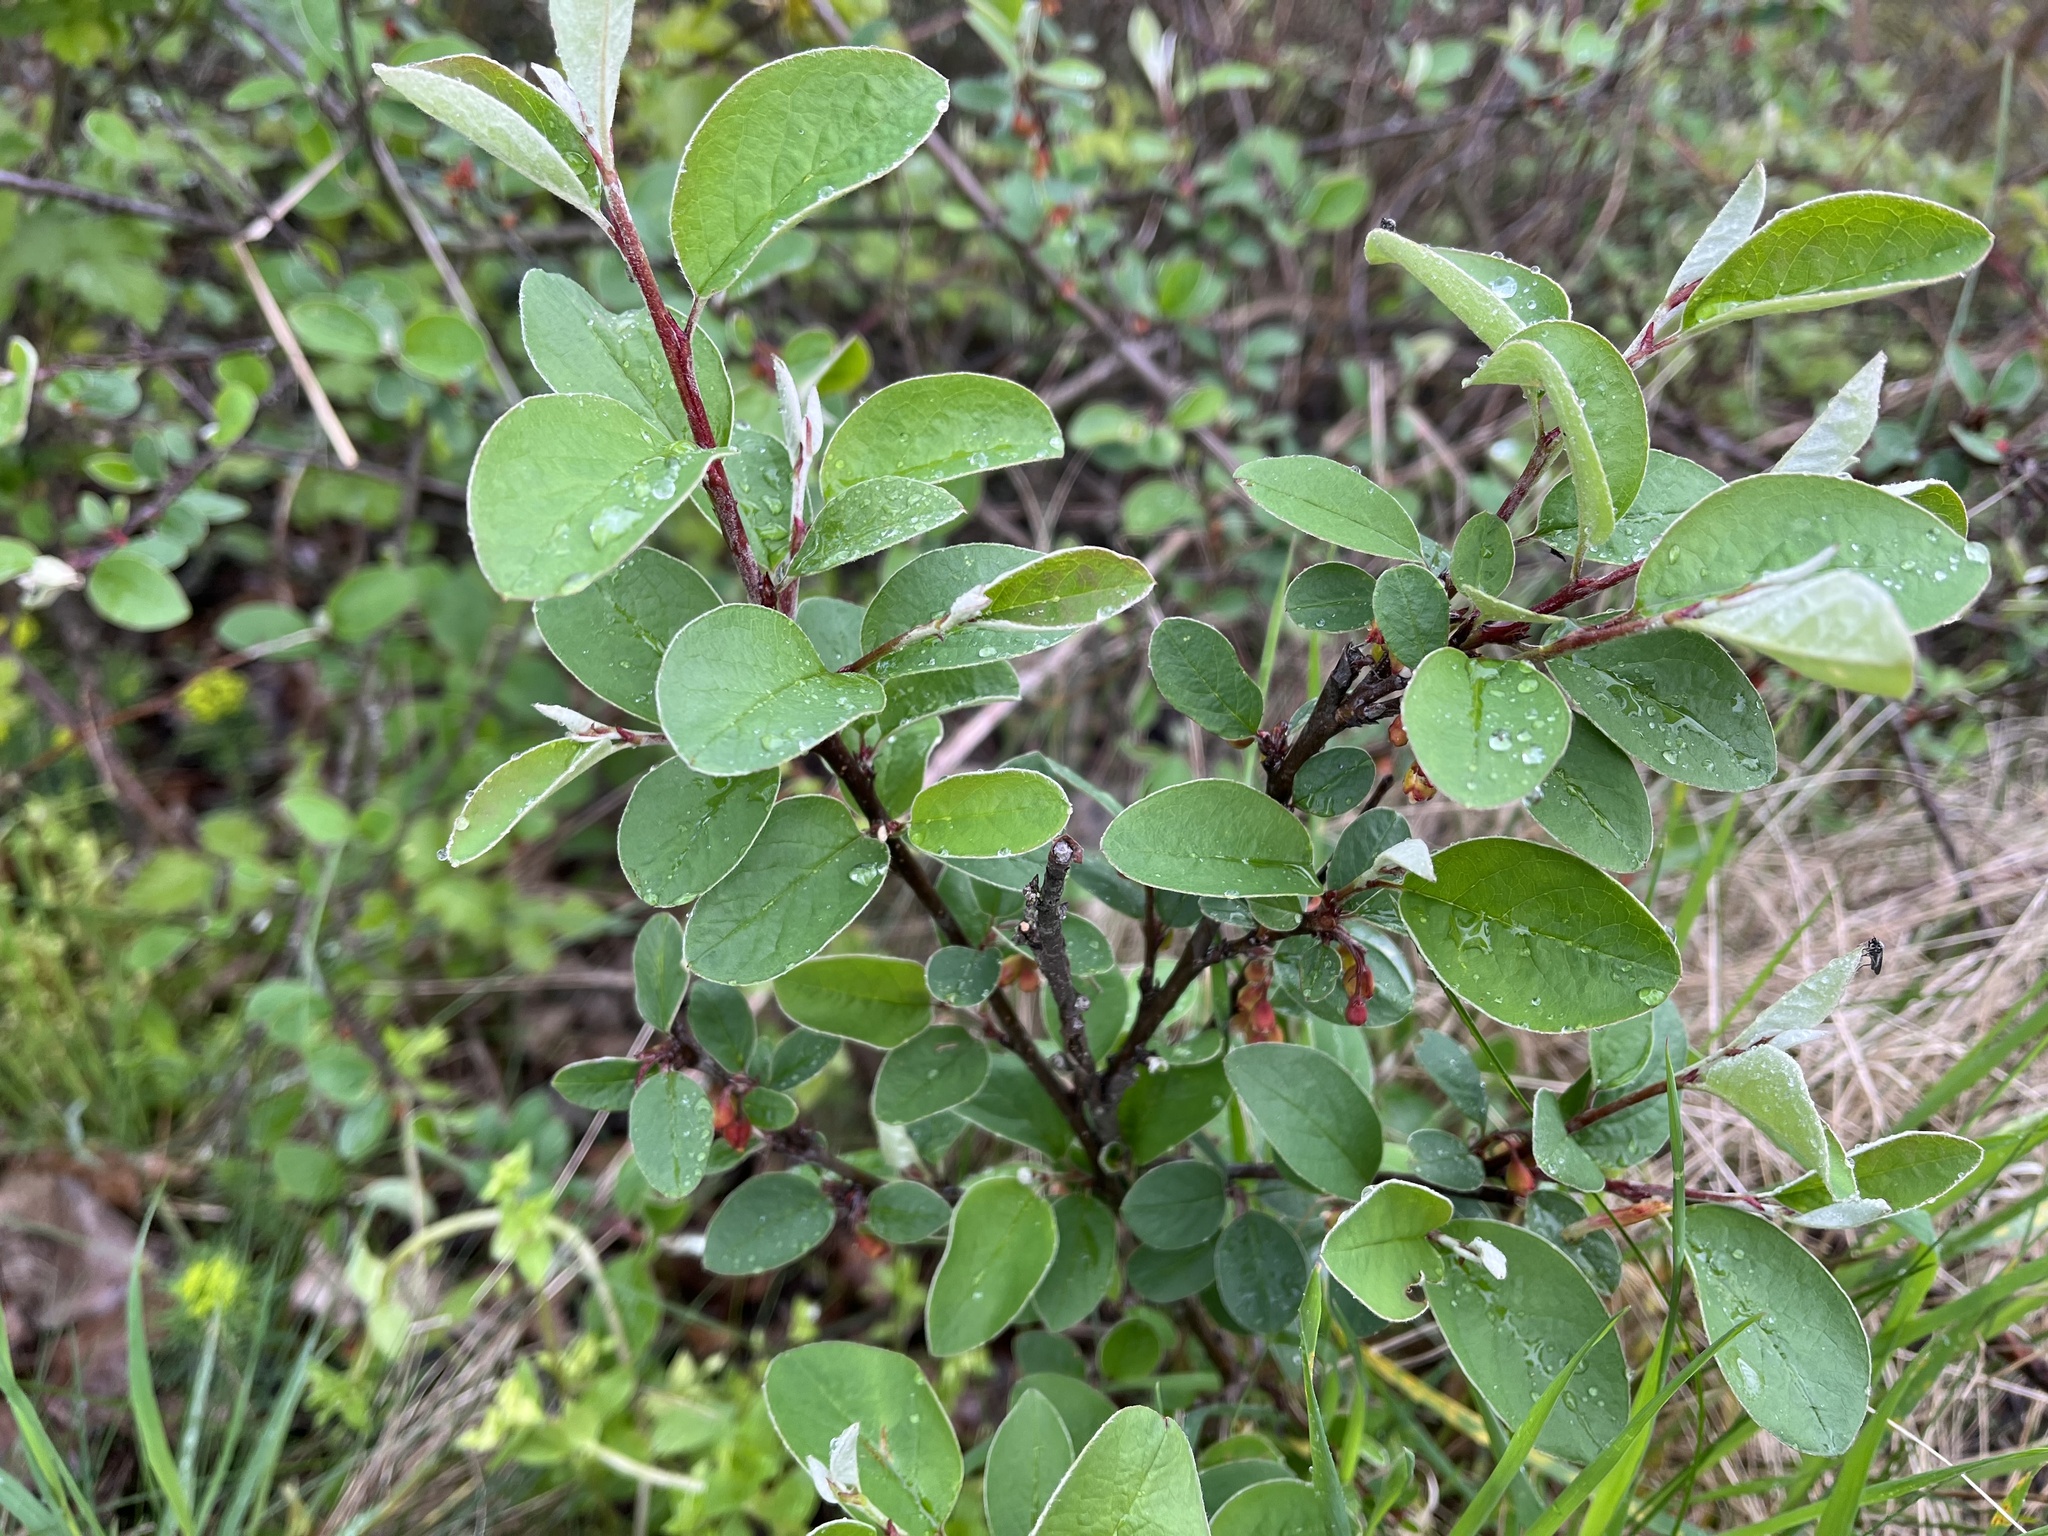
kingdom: Plantae
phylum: Tracheophyta
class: Magnoliopsida
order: Rosales
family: Rosaceae
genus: Cotoneaster
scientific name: Cotoneaster integerrimus
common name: Wild cotoneaster
